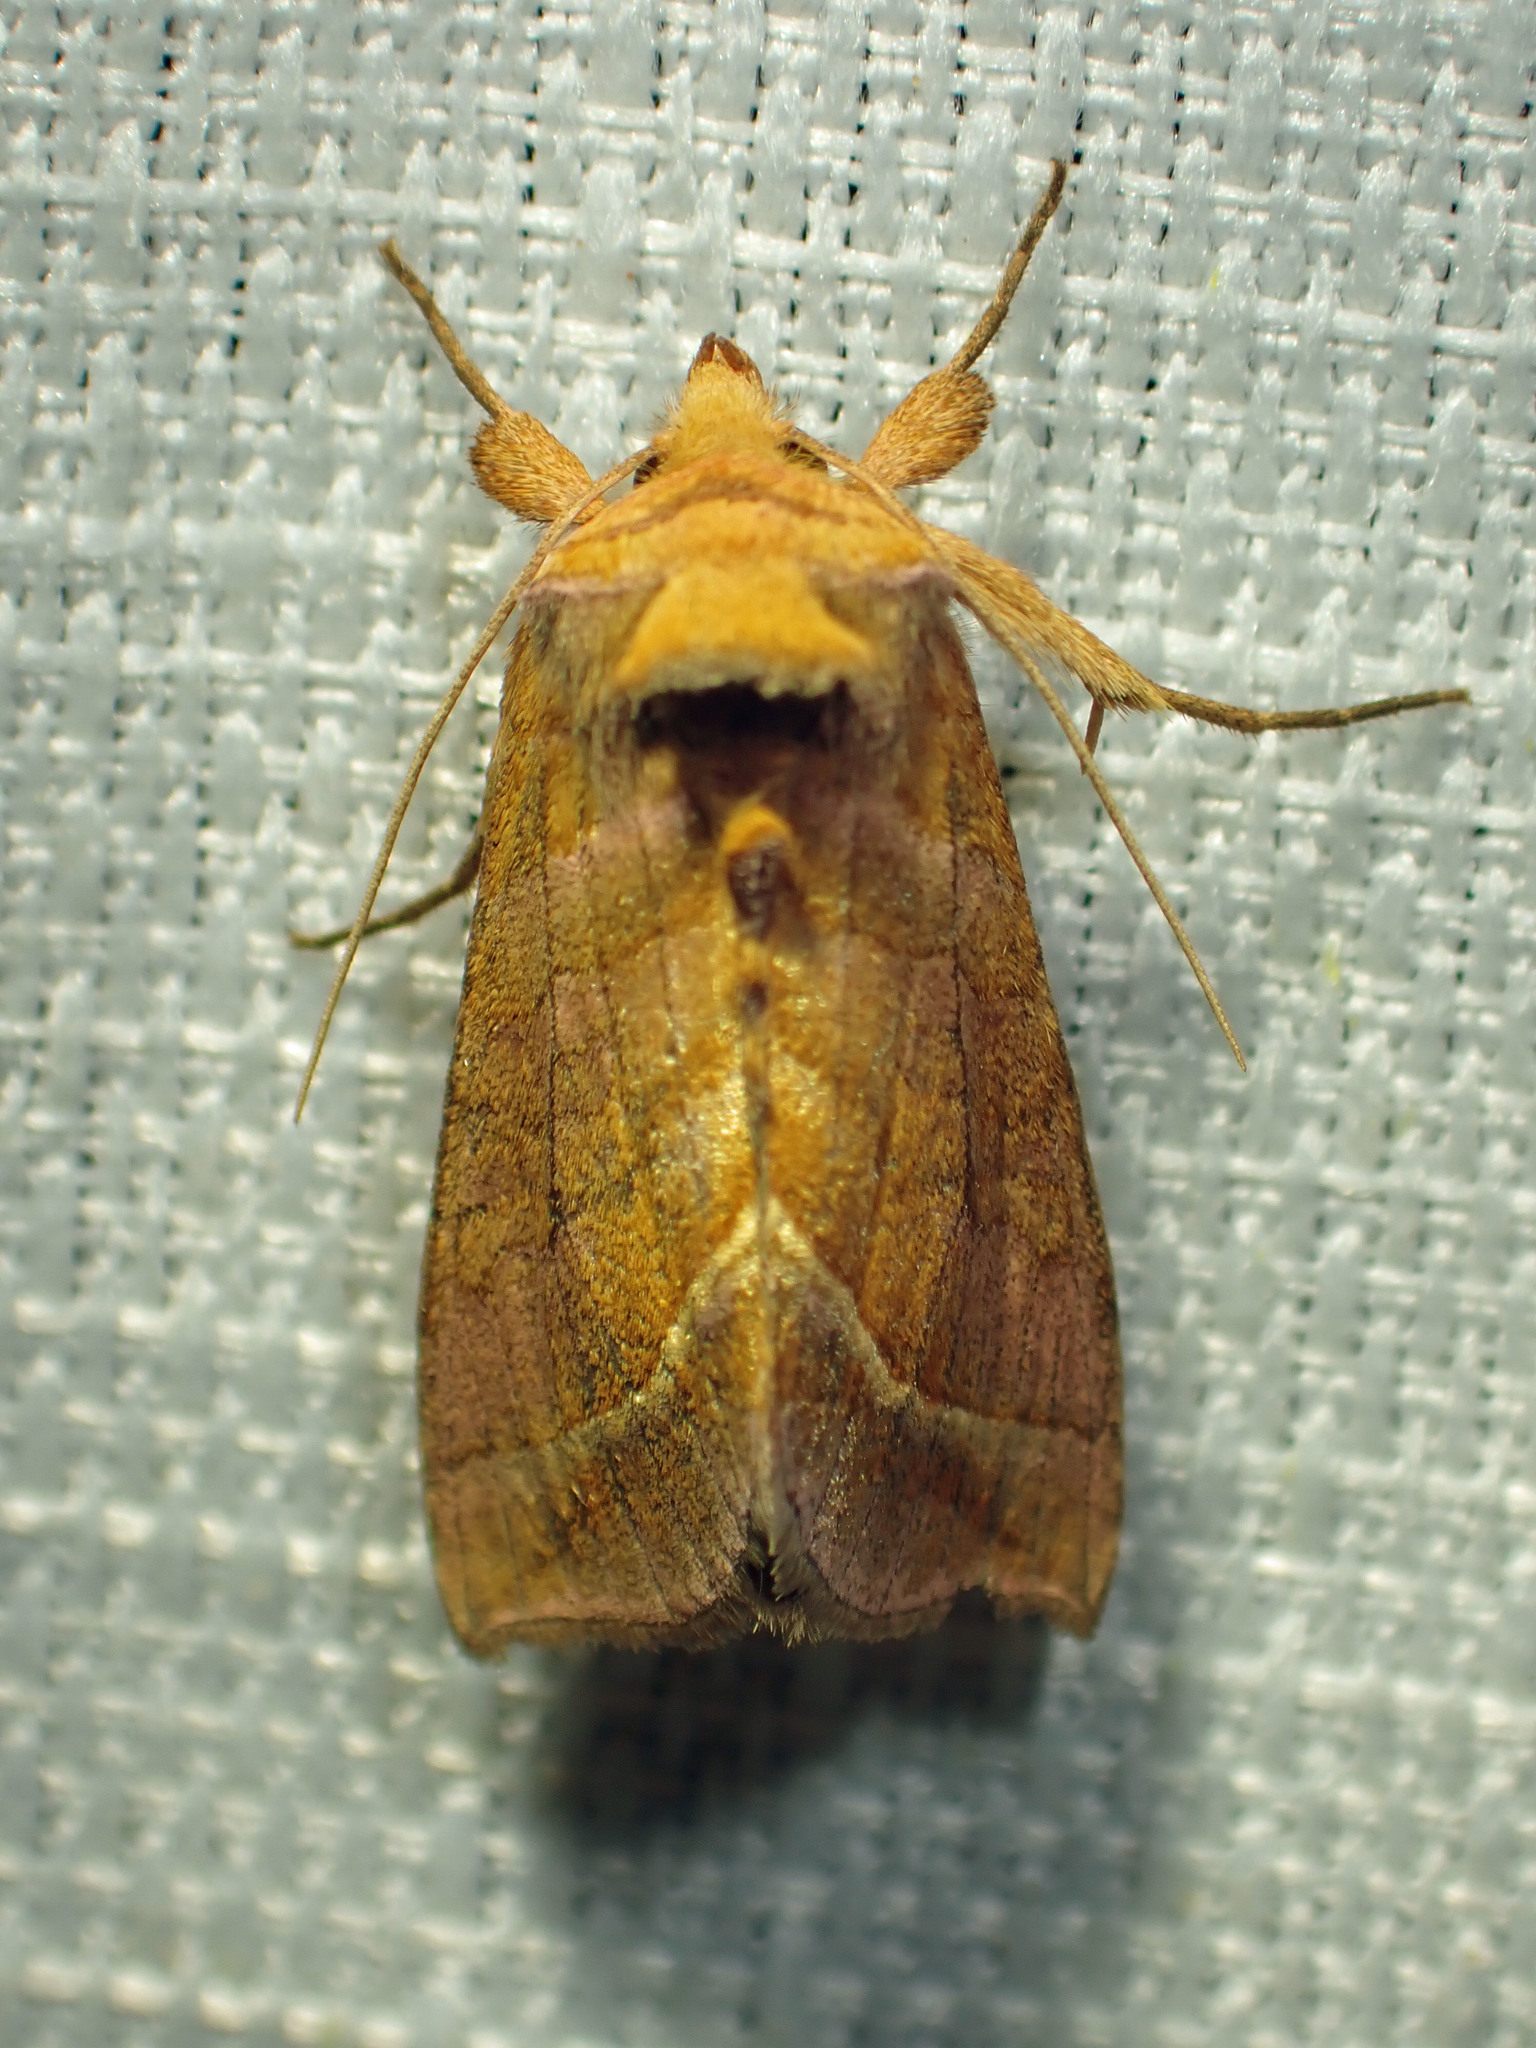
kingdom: Animalia
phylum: Arthropoda
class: Insecta
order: Lepidoptera
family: Noctuidae
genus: Diachrysia
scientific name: Diachrysia aereoides
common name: Dark-spotted looper moth
